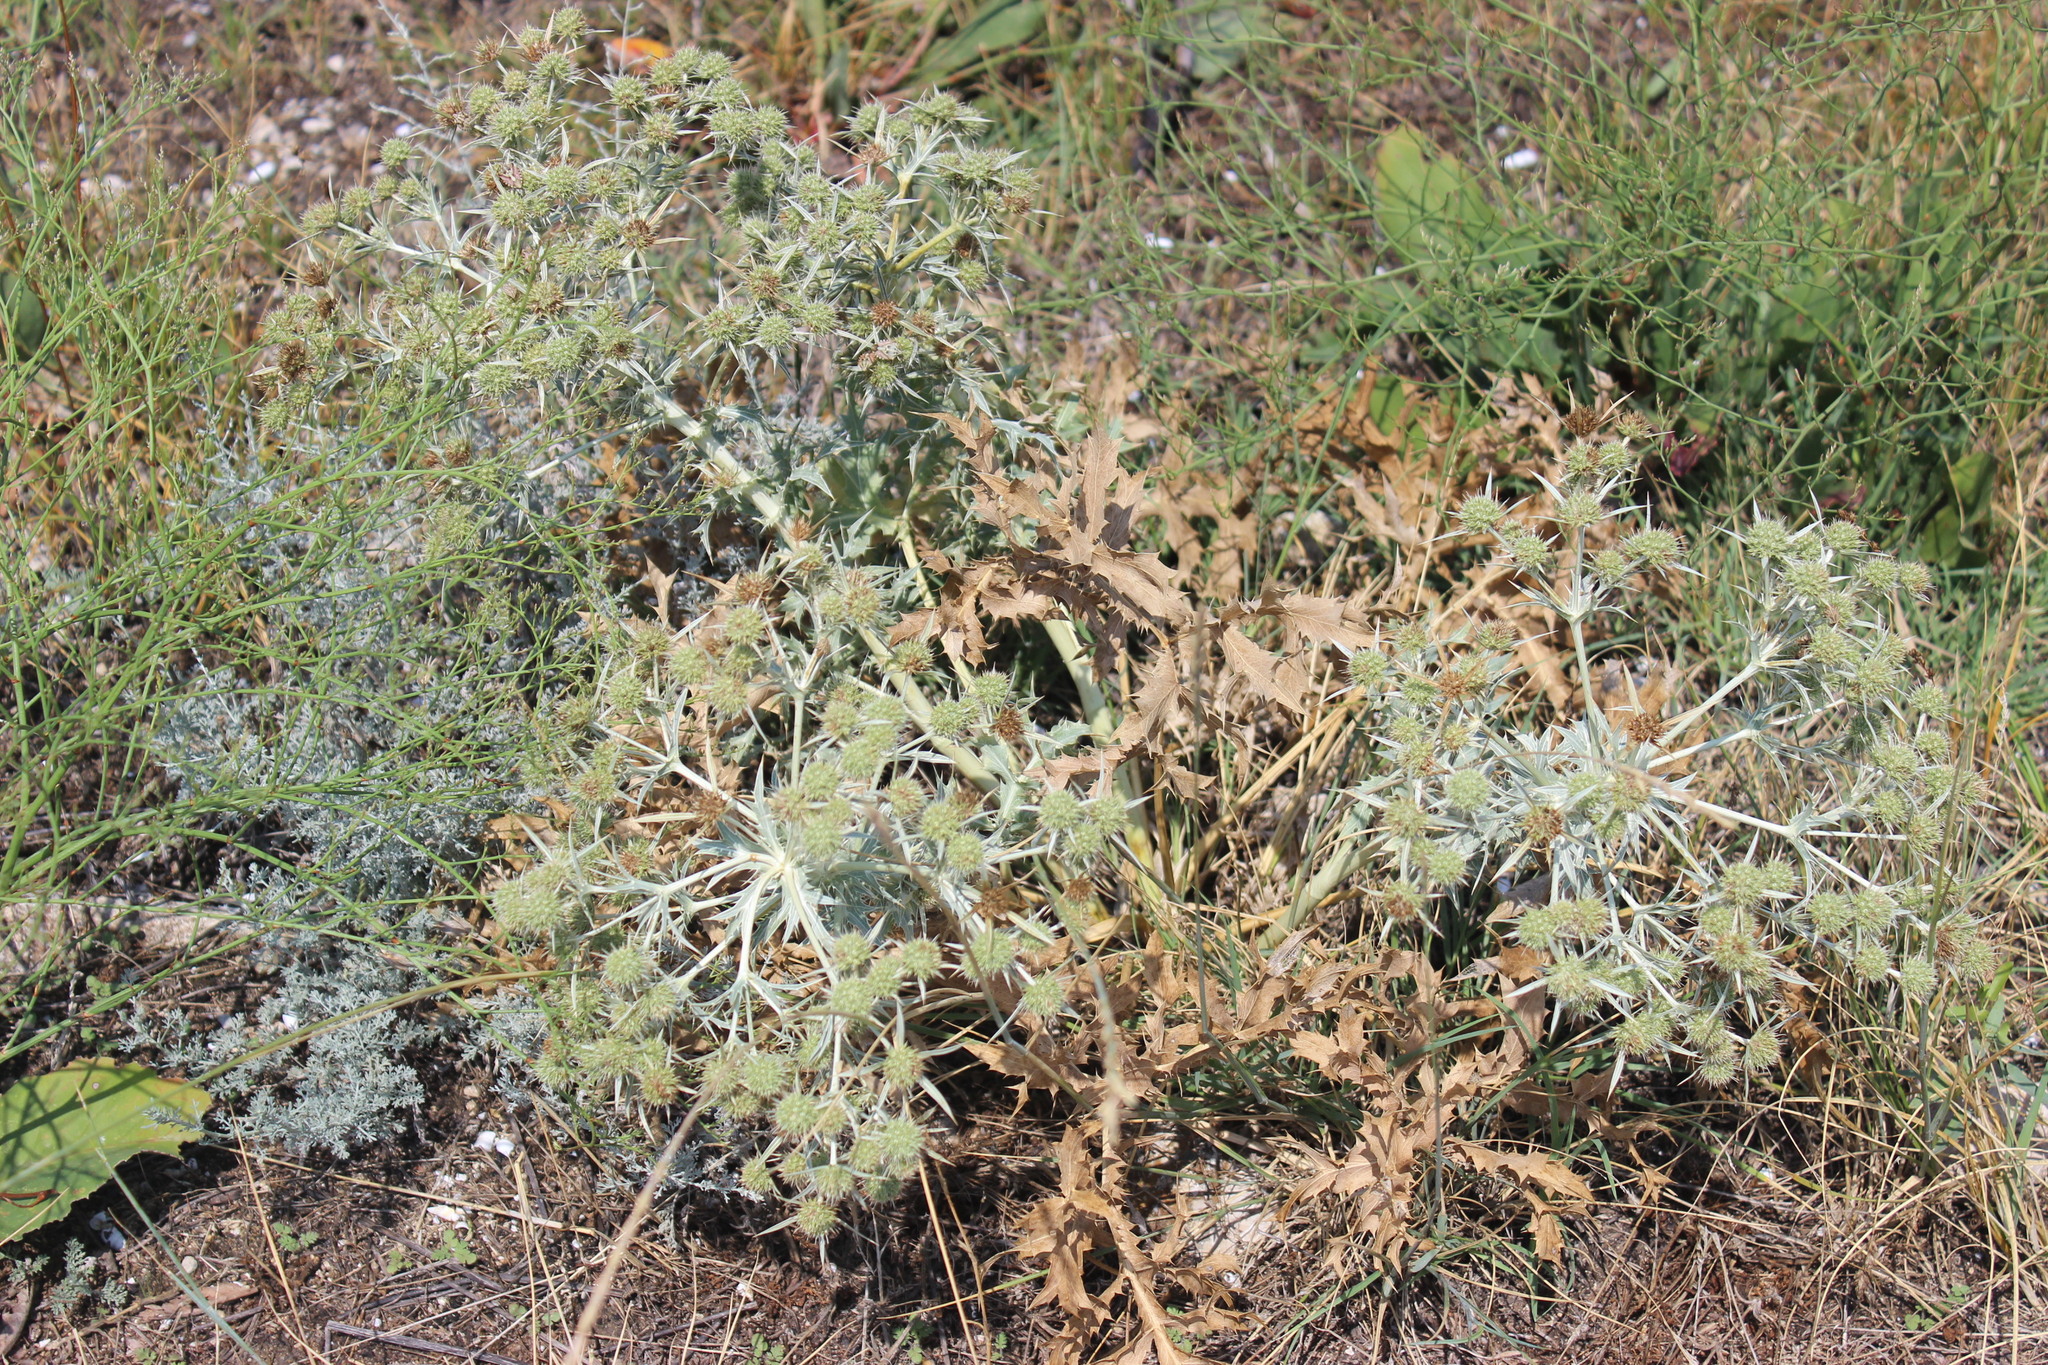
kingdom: Plantae
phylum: Tracheophyta
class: Magnoliopsida
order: Apiales
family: Apiaceae
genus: Eryngium
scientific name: Eryngium campestre
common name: Field eryngo
